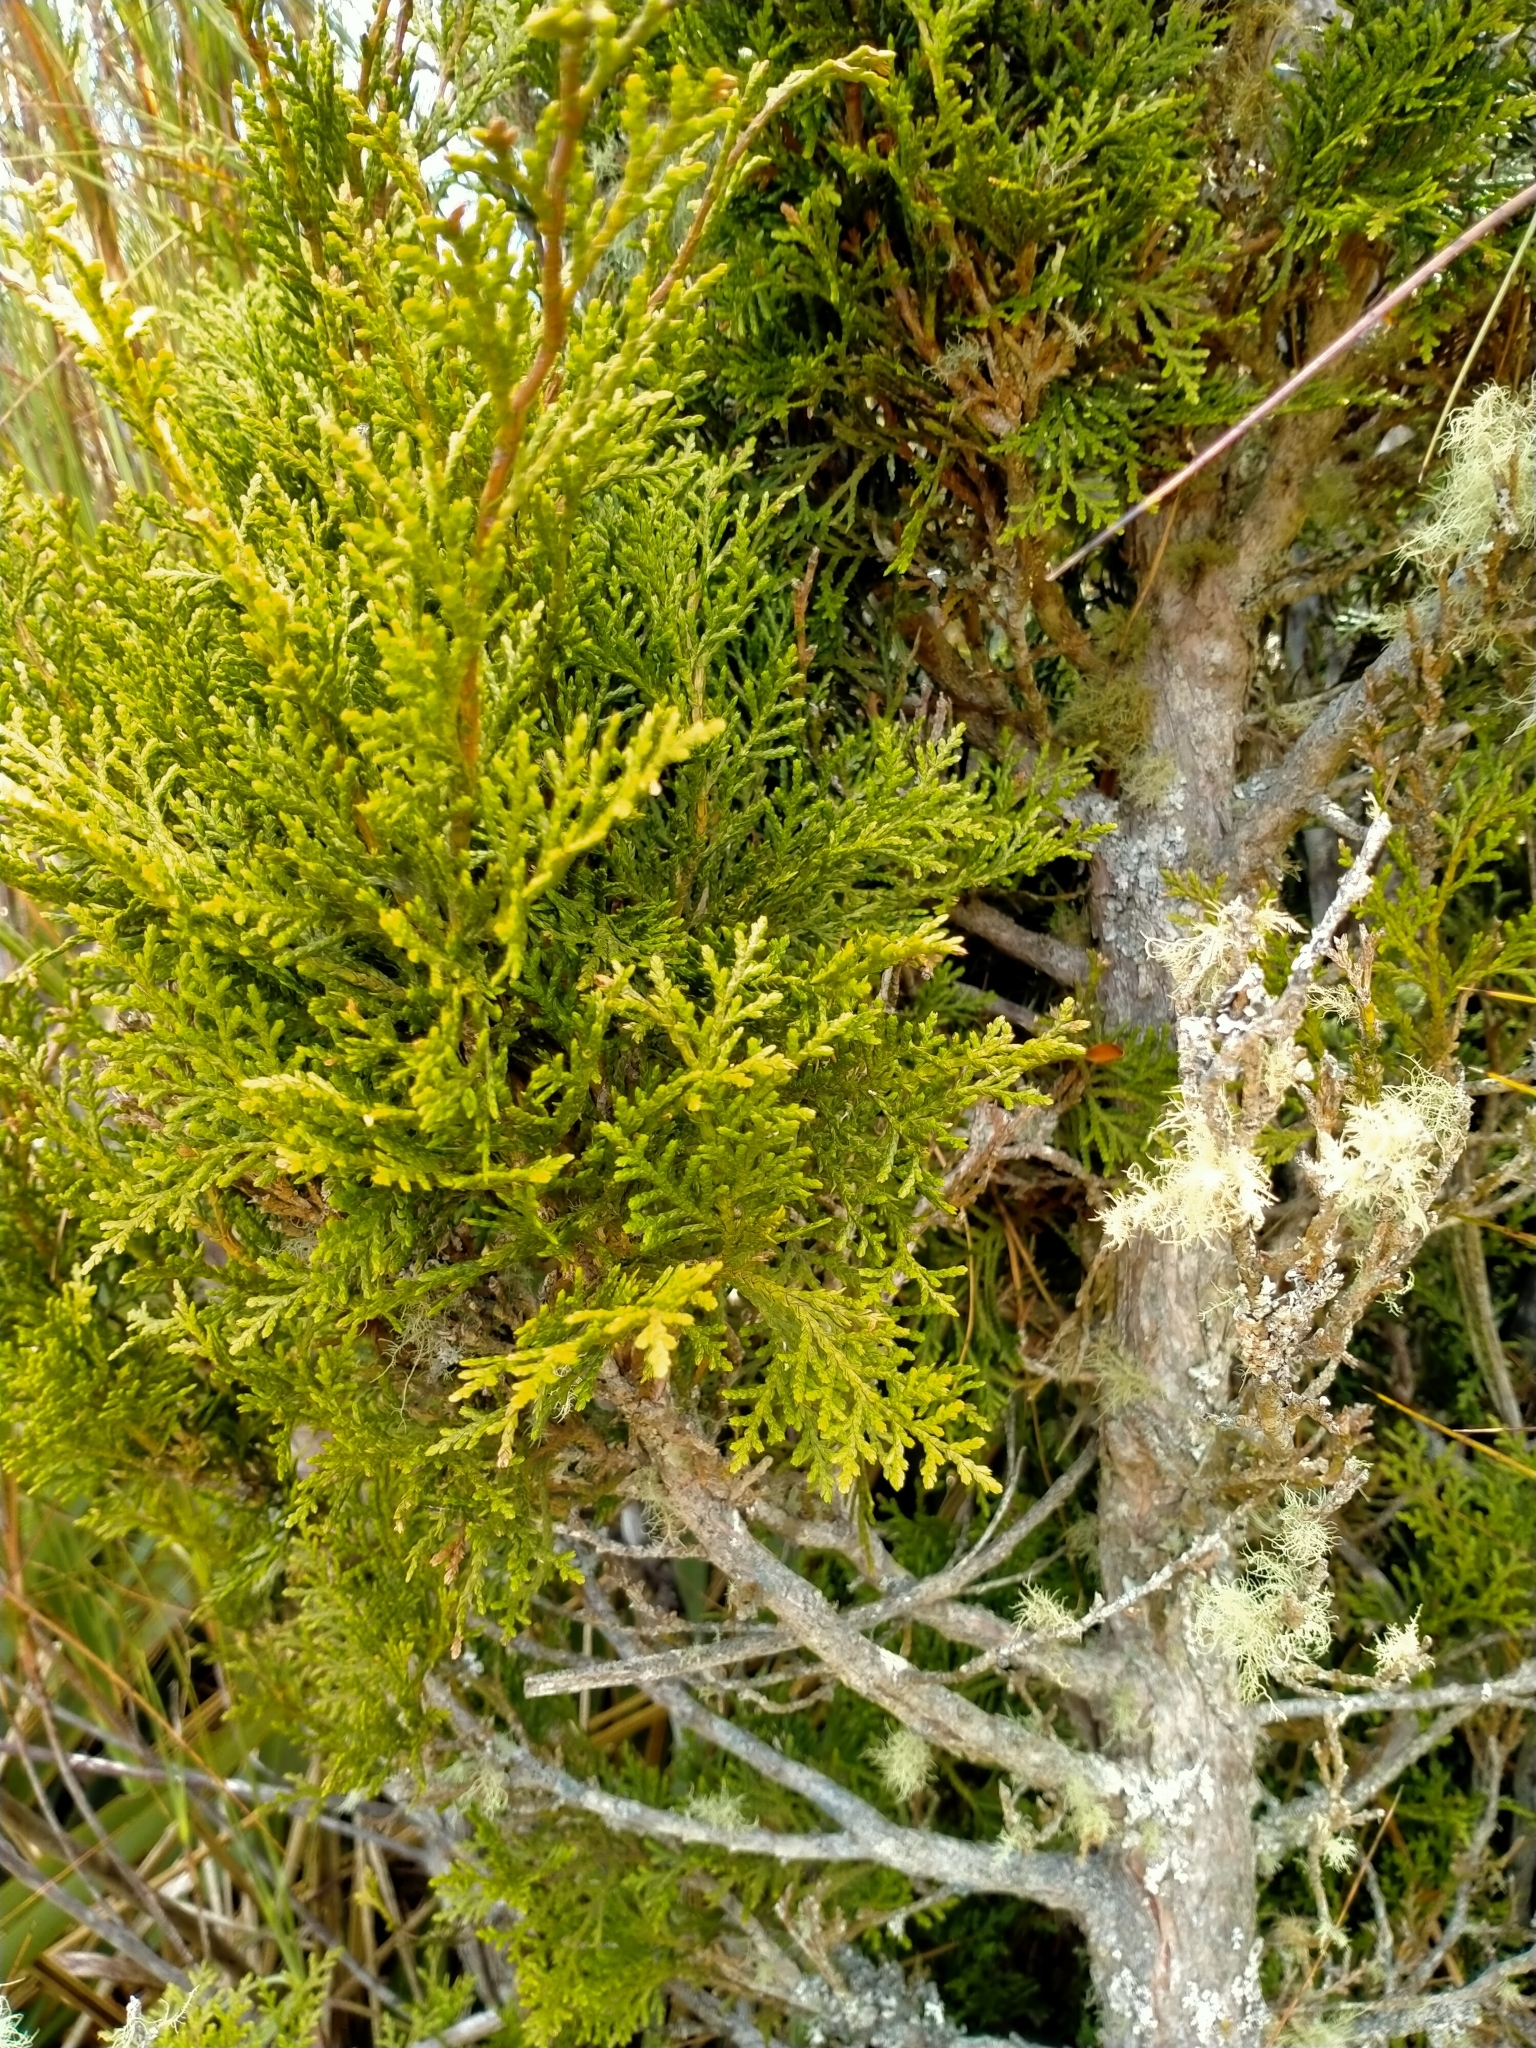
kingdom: Plantae
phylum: Tracheophyta
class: Pinopsida
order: Pinales
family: Cupressaceae
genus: Libocedrus
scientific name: Libocedrus bidwillii
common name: Cedar
